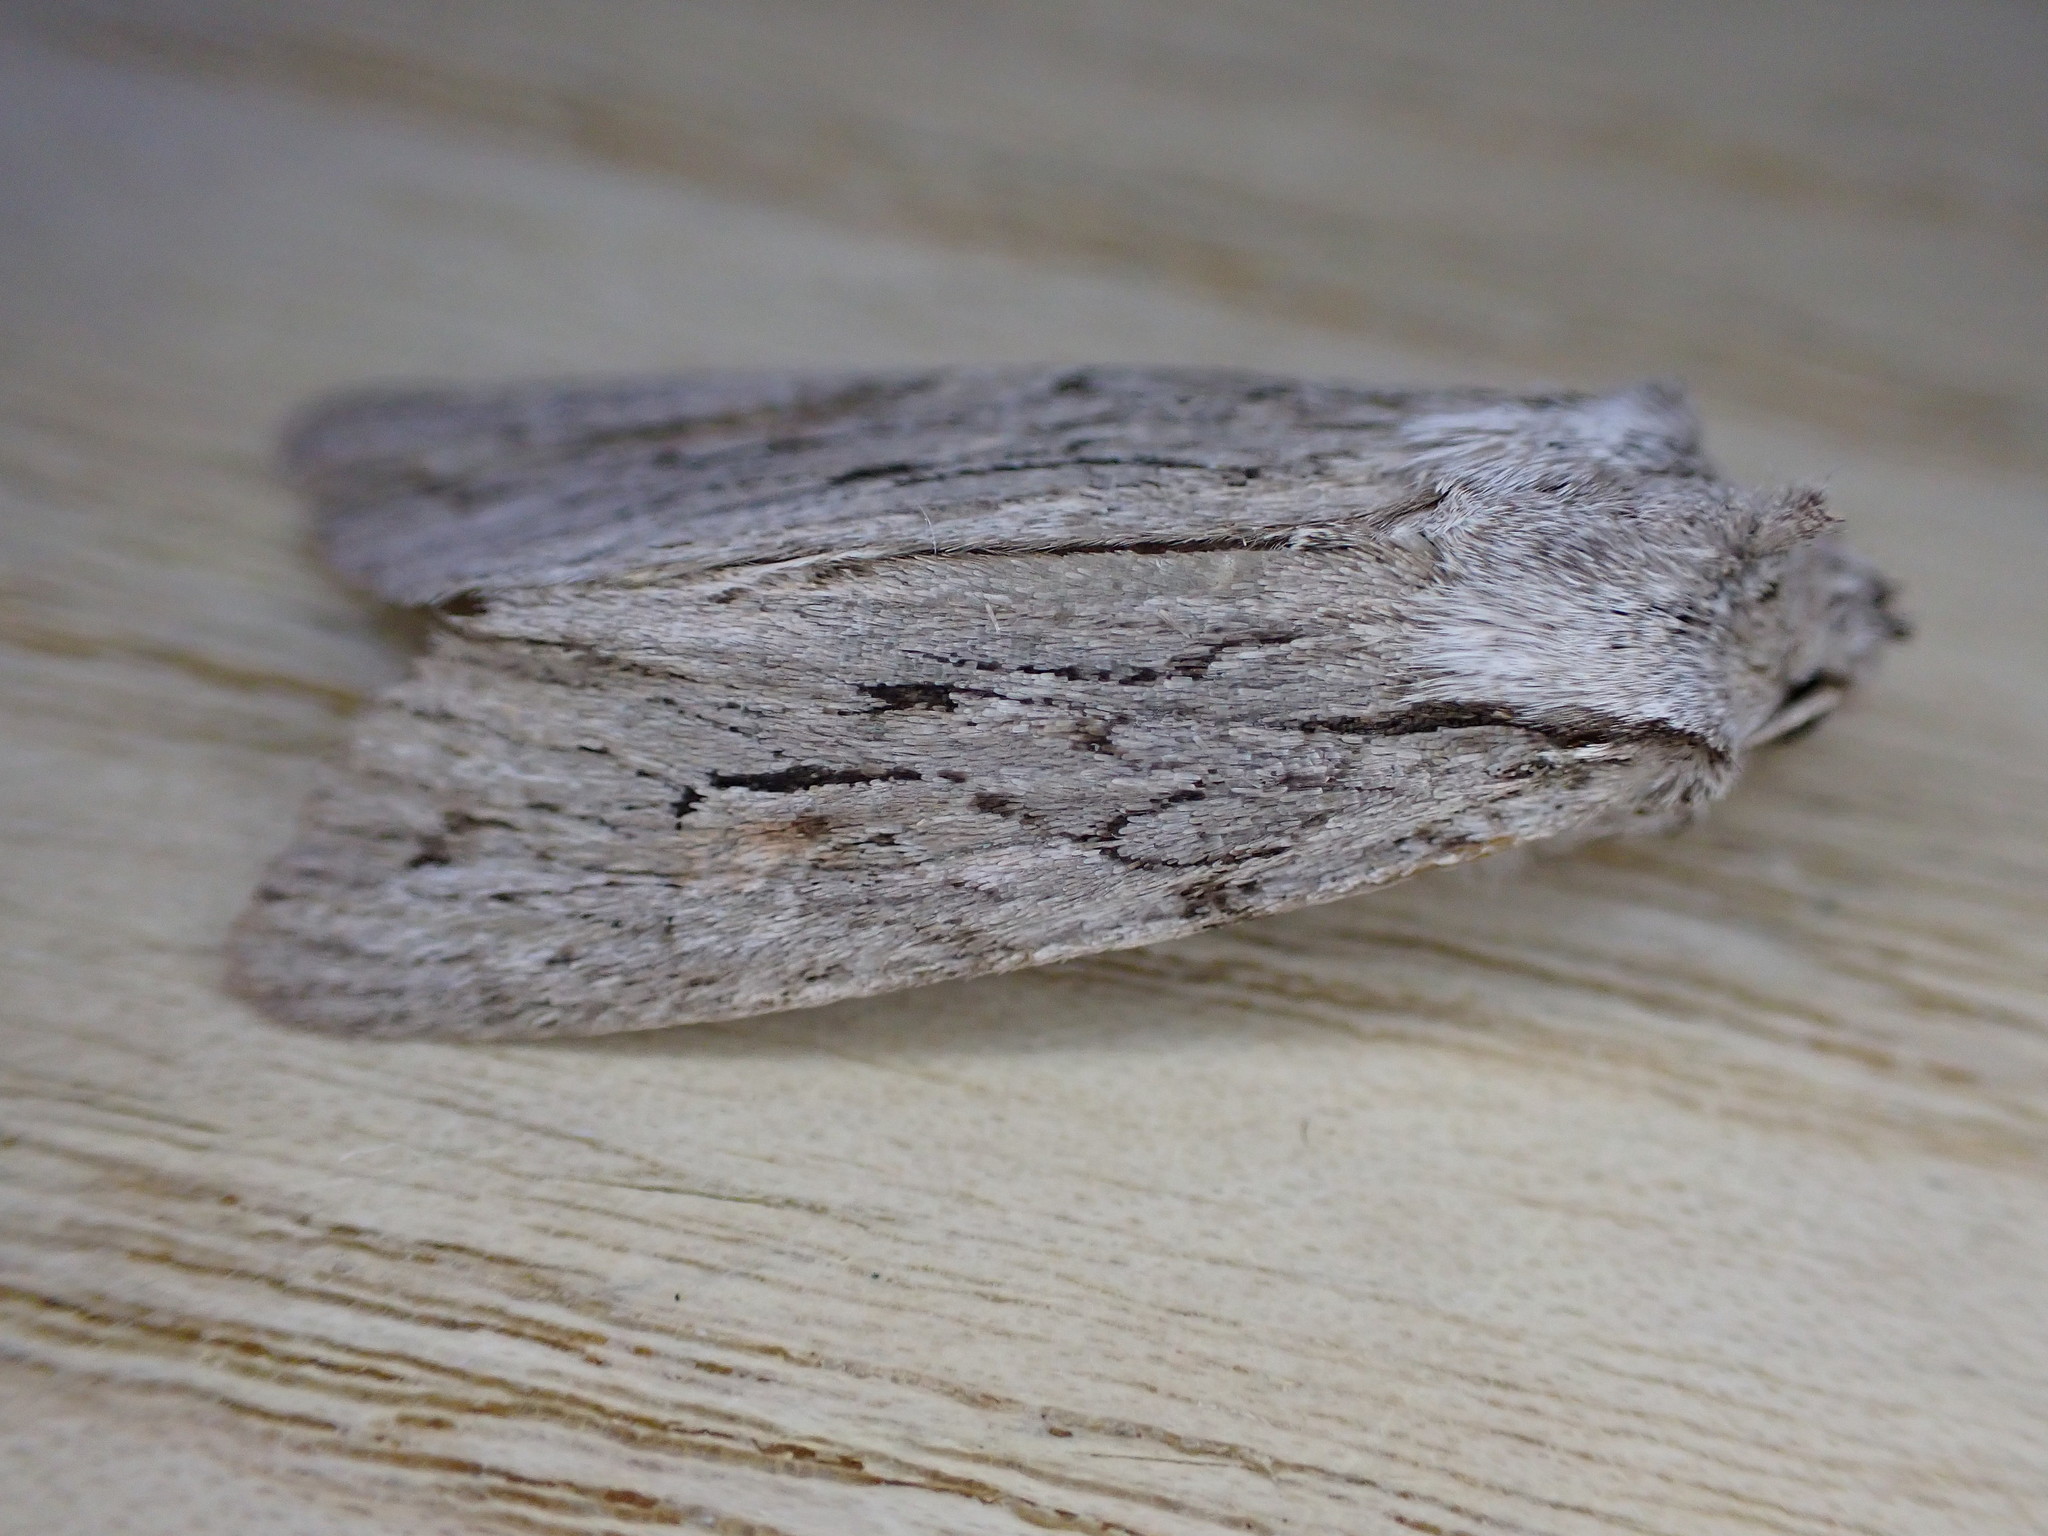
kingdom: Animalia
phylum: Arthropoda
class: Insecta
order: Lepidoptera
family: Noctuidae
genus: Lithophane
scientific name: Lithophane leautieri
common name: Blair's shoulder-knot
